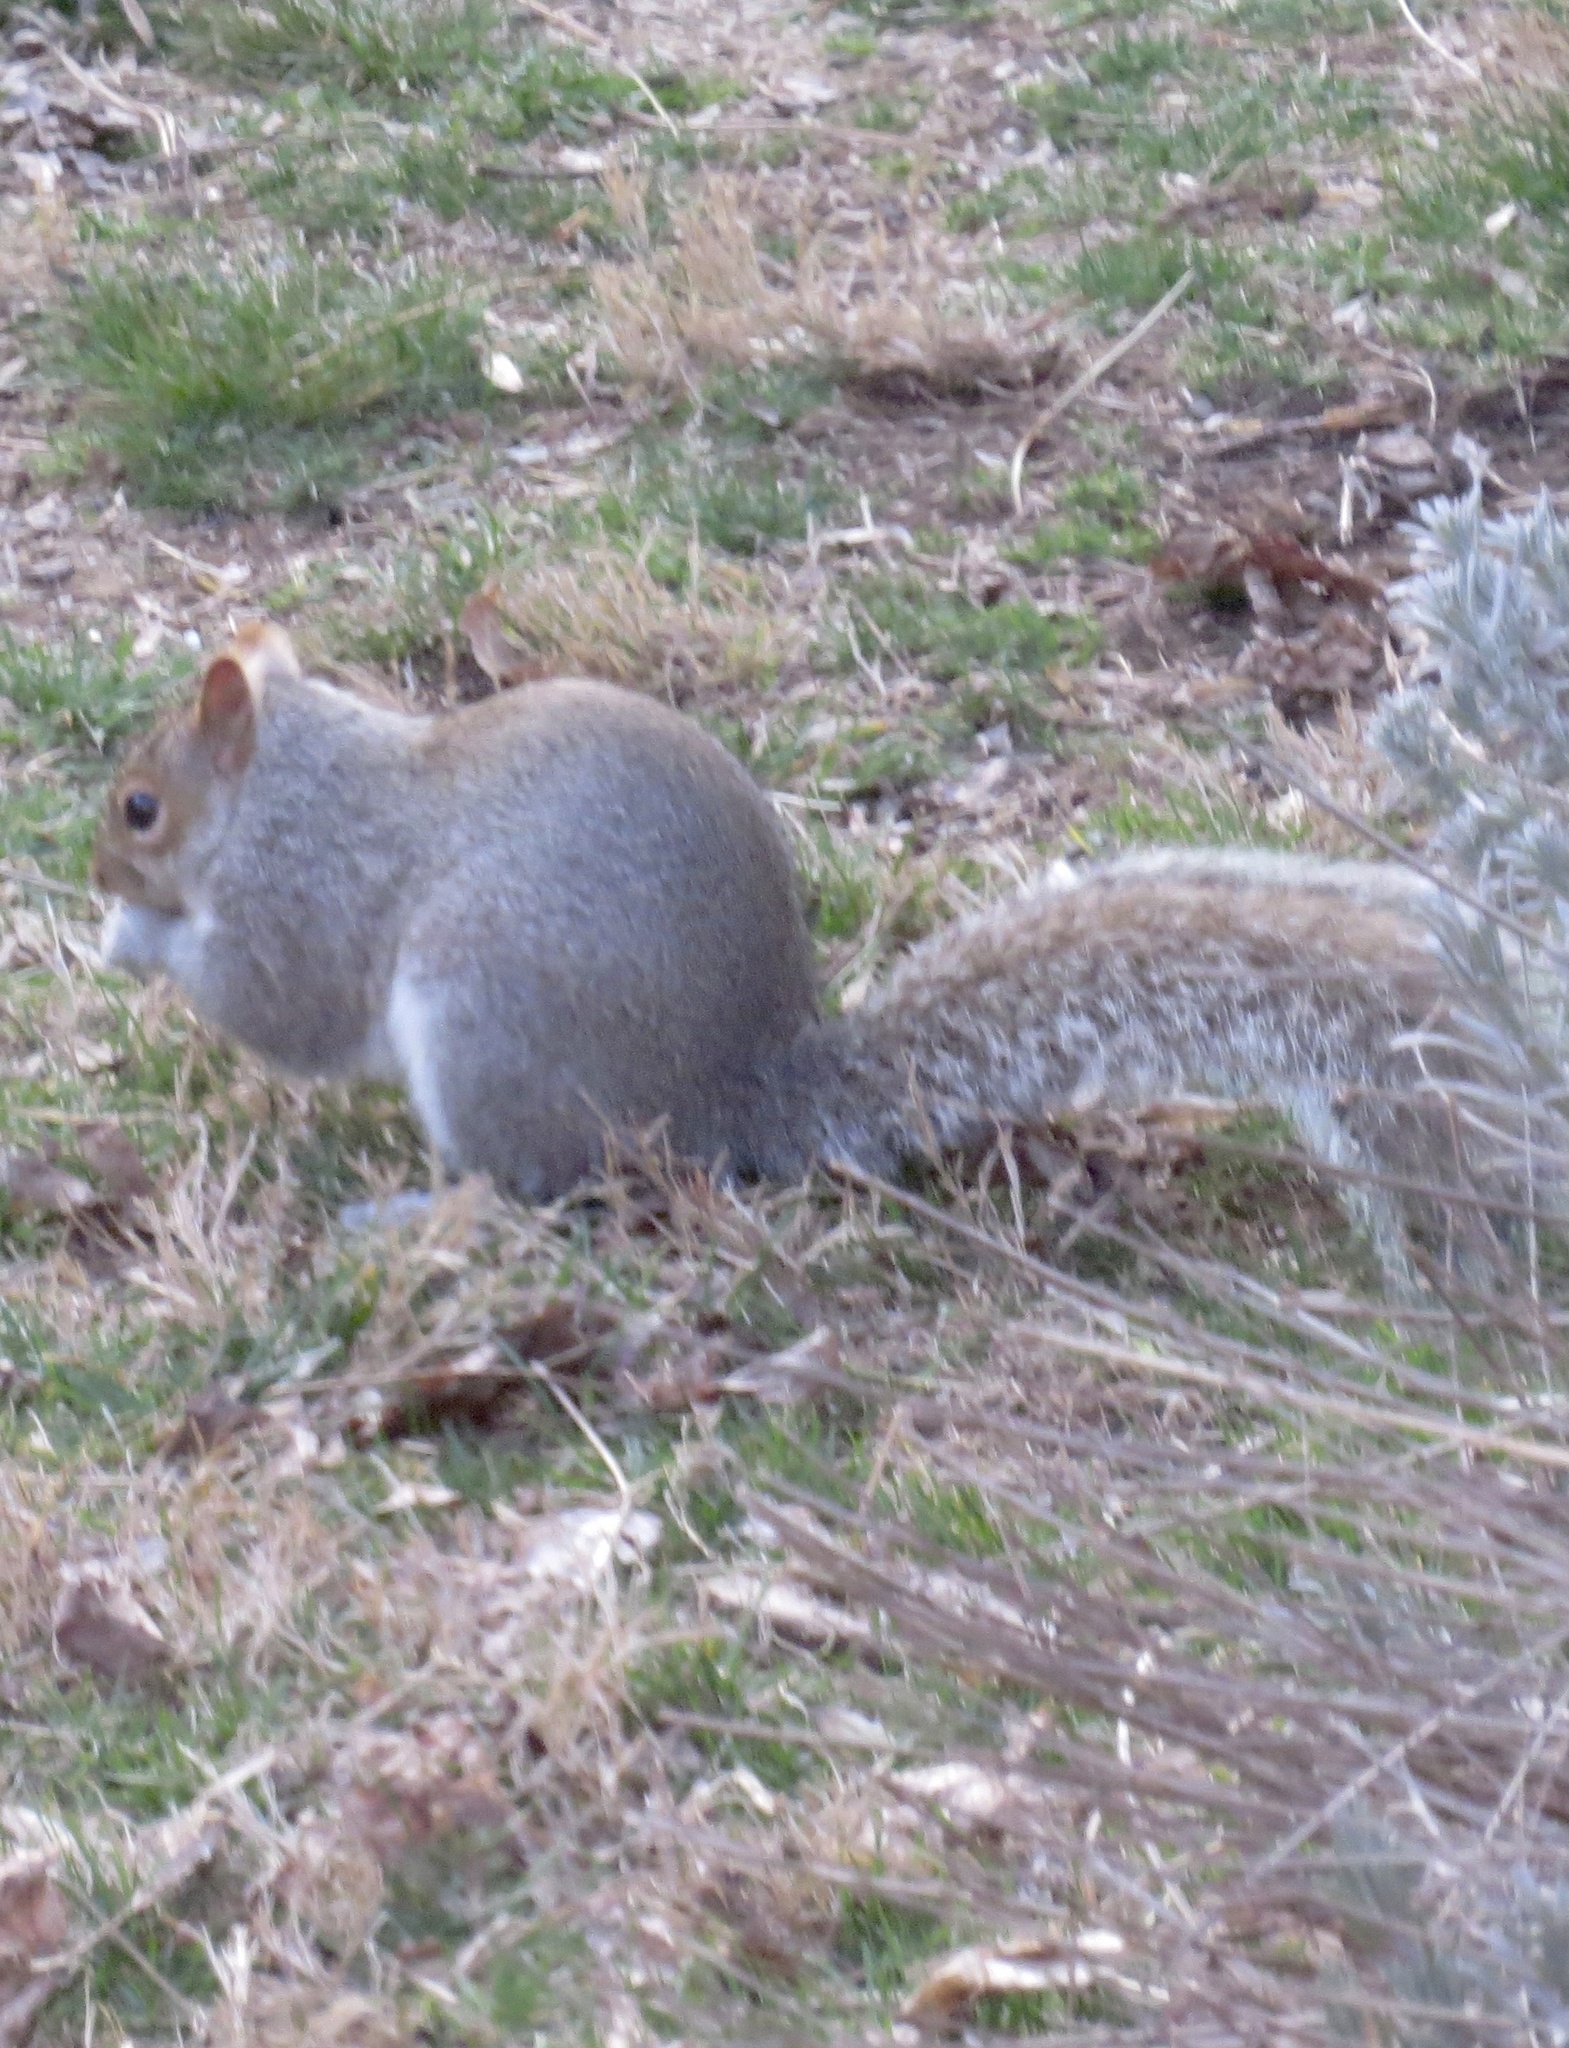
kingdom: Animalia
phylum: Chordata
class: Mammalia
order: Rodentia
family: Sciuridae
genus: Sciurus
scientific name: Sciurus carolinensis
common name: Eastern gray squirrel
